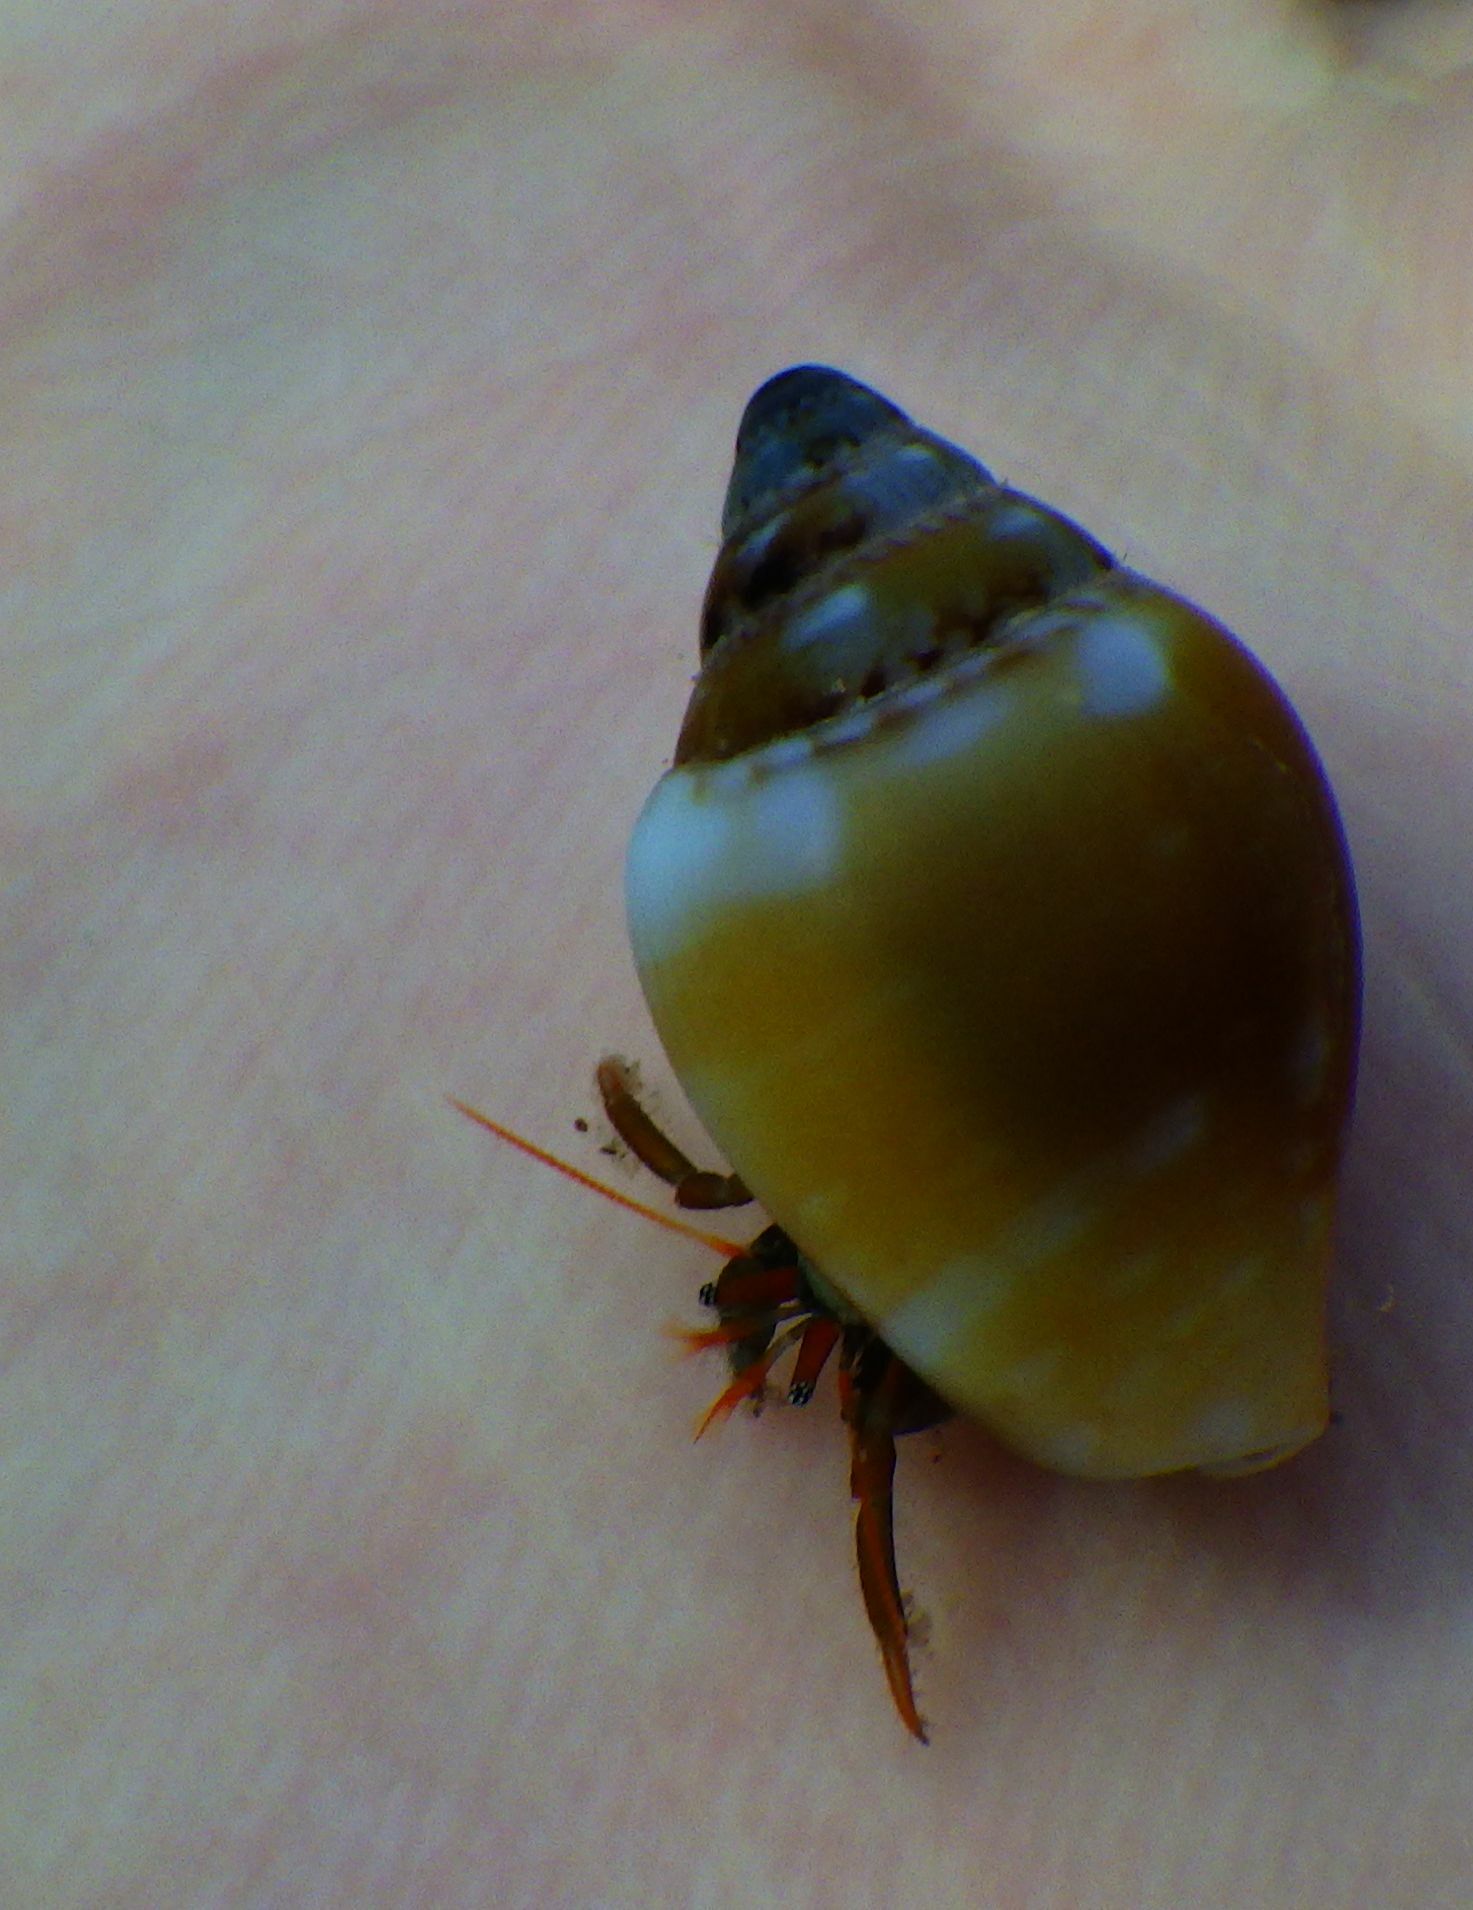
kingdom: Animalia
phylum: Mollusca
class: Gastropoda
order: Neogastropoda
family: Columbellidae
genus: Columbella
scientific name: Columbella rustica
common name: Rustic dove shell
